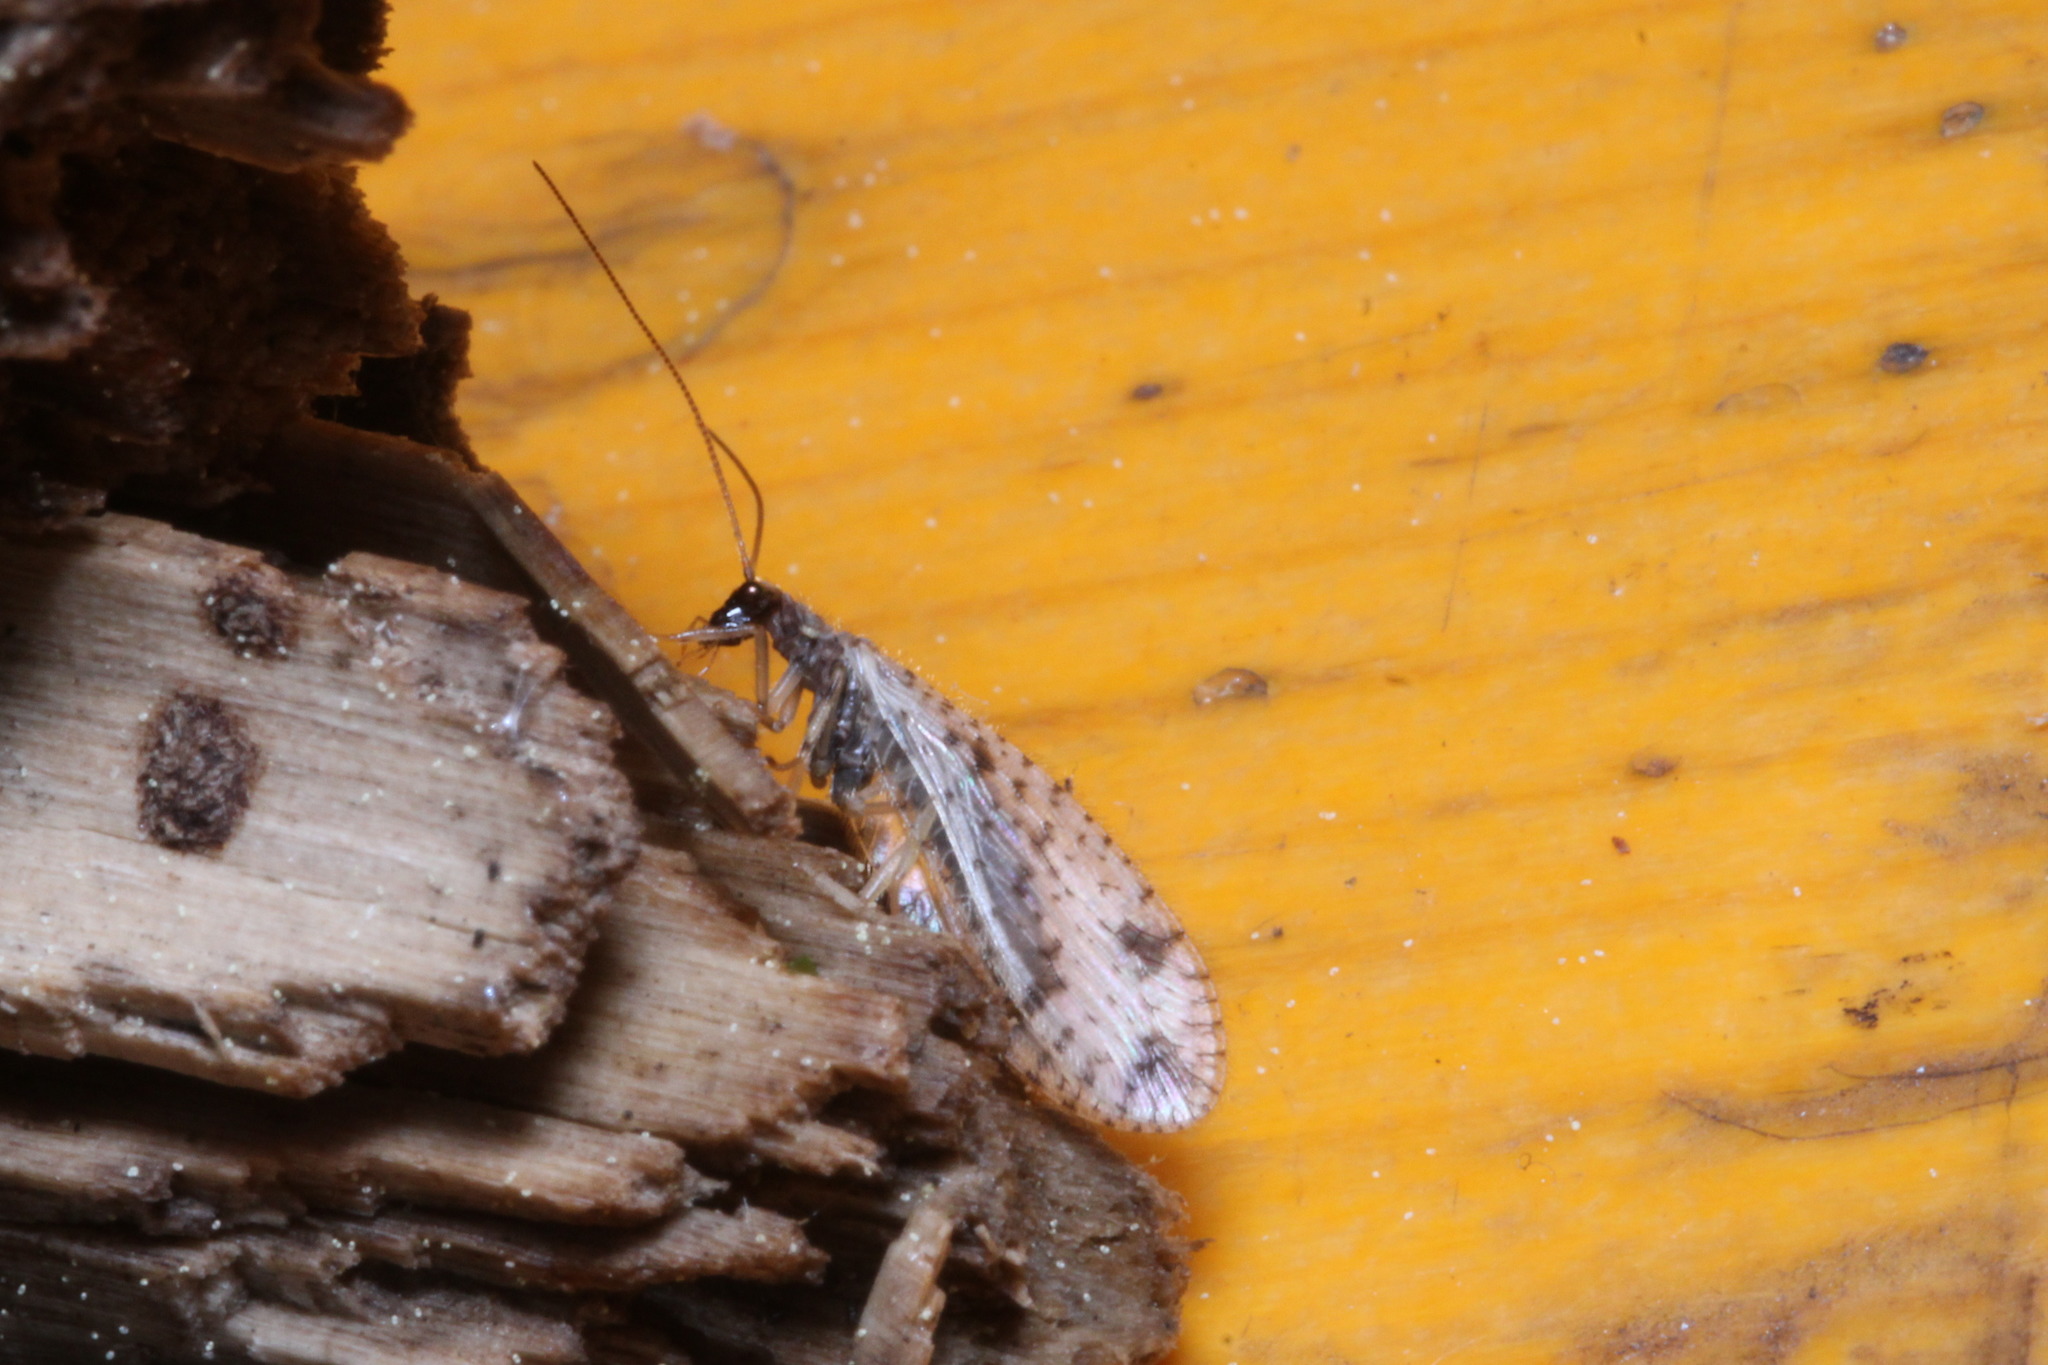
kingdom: Animalia
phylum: Arthropoda
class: Insecta
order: Neuroptera
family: Hemerobiidae
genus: Micromus
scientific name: Micromus variegatus
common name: Brown lacewing
